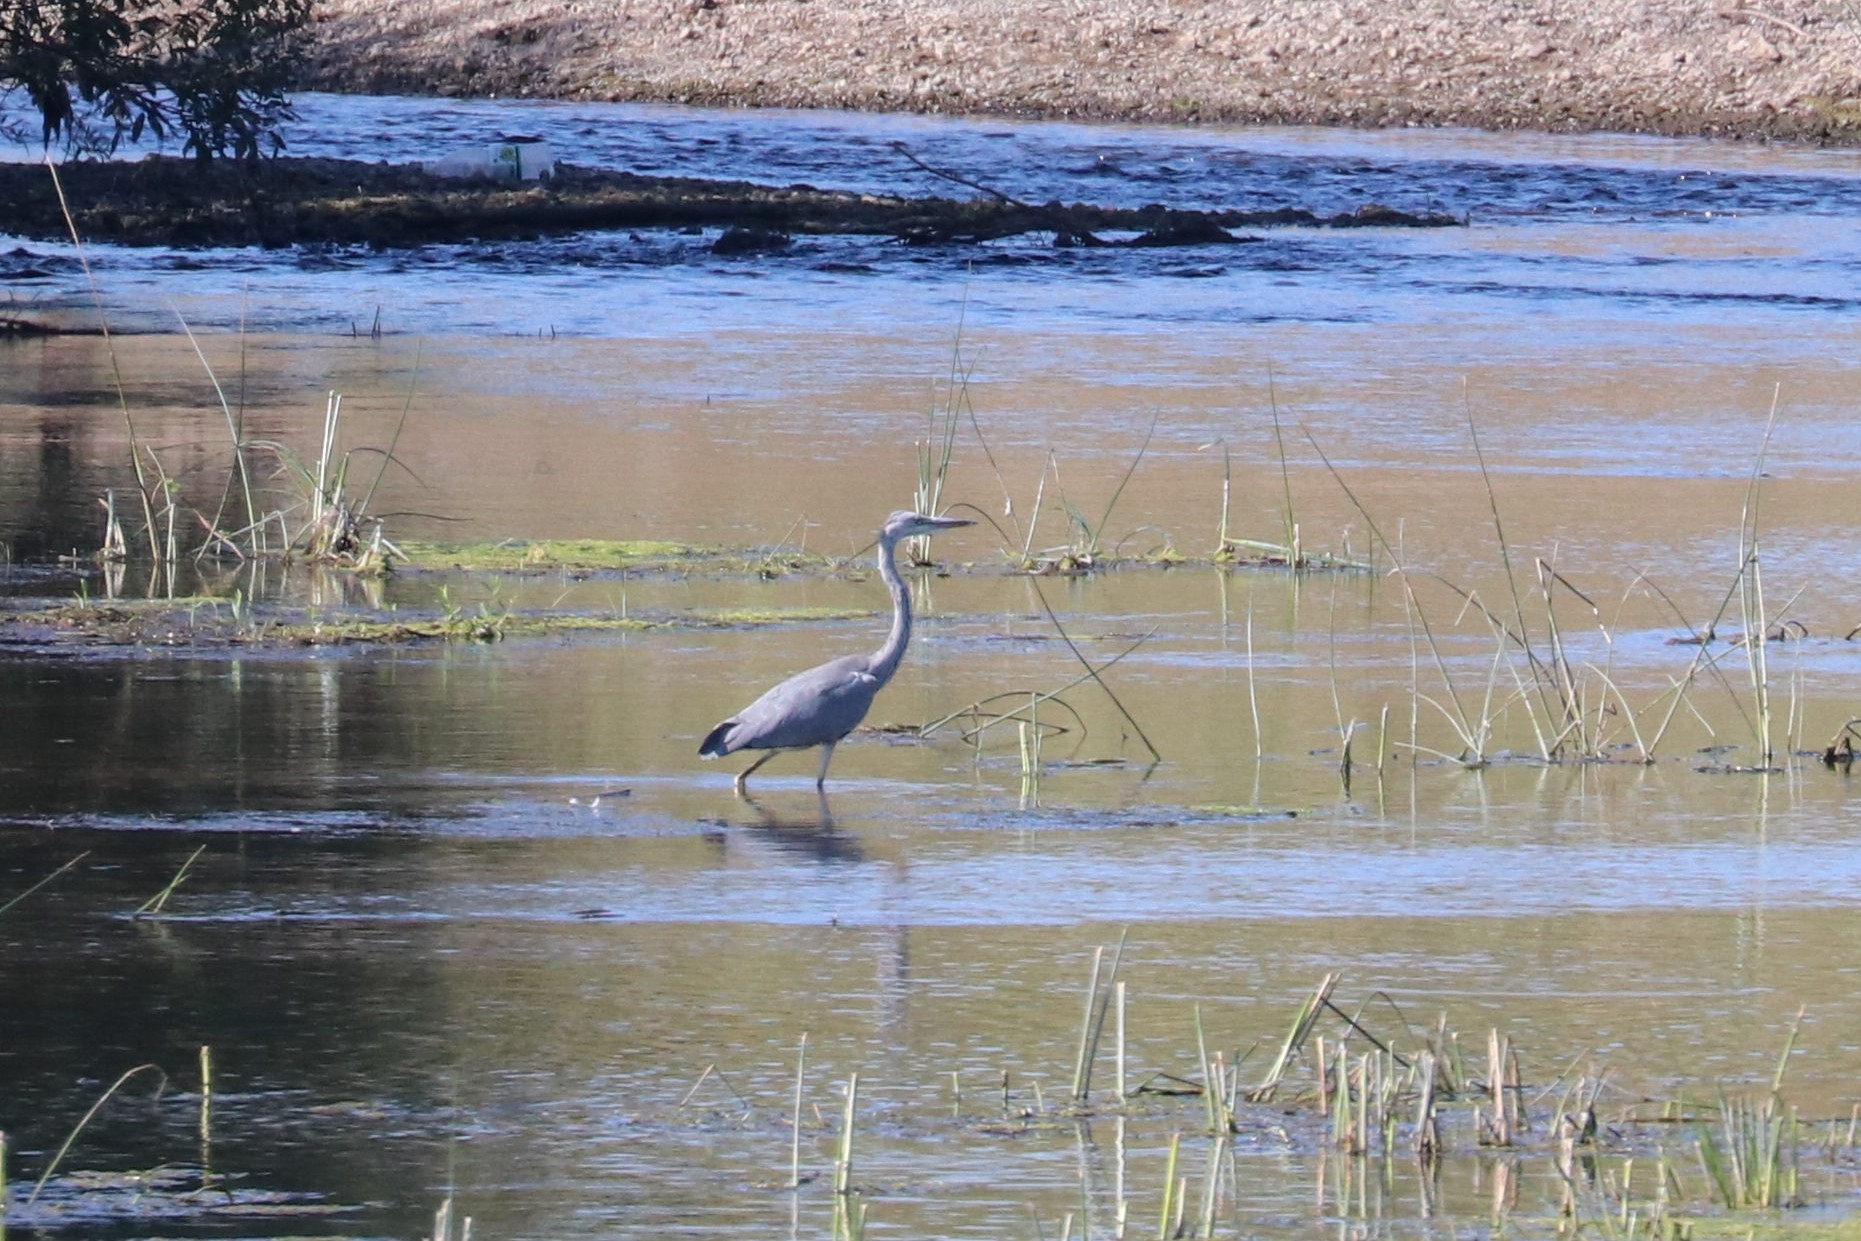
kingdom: Animalia
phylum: Chordata
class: Aves
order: Pelecaniformes
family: Ardeidae
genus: Ardea
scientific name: Ardea cinerea
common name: Grey heron
